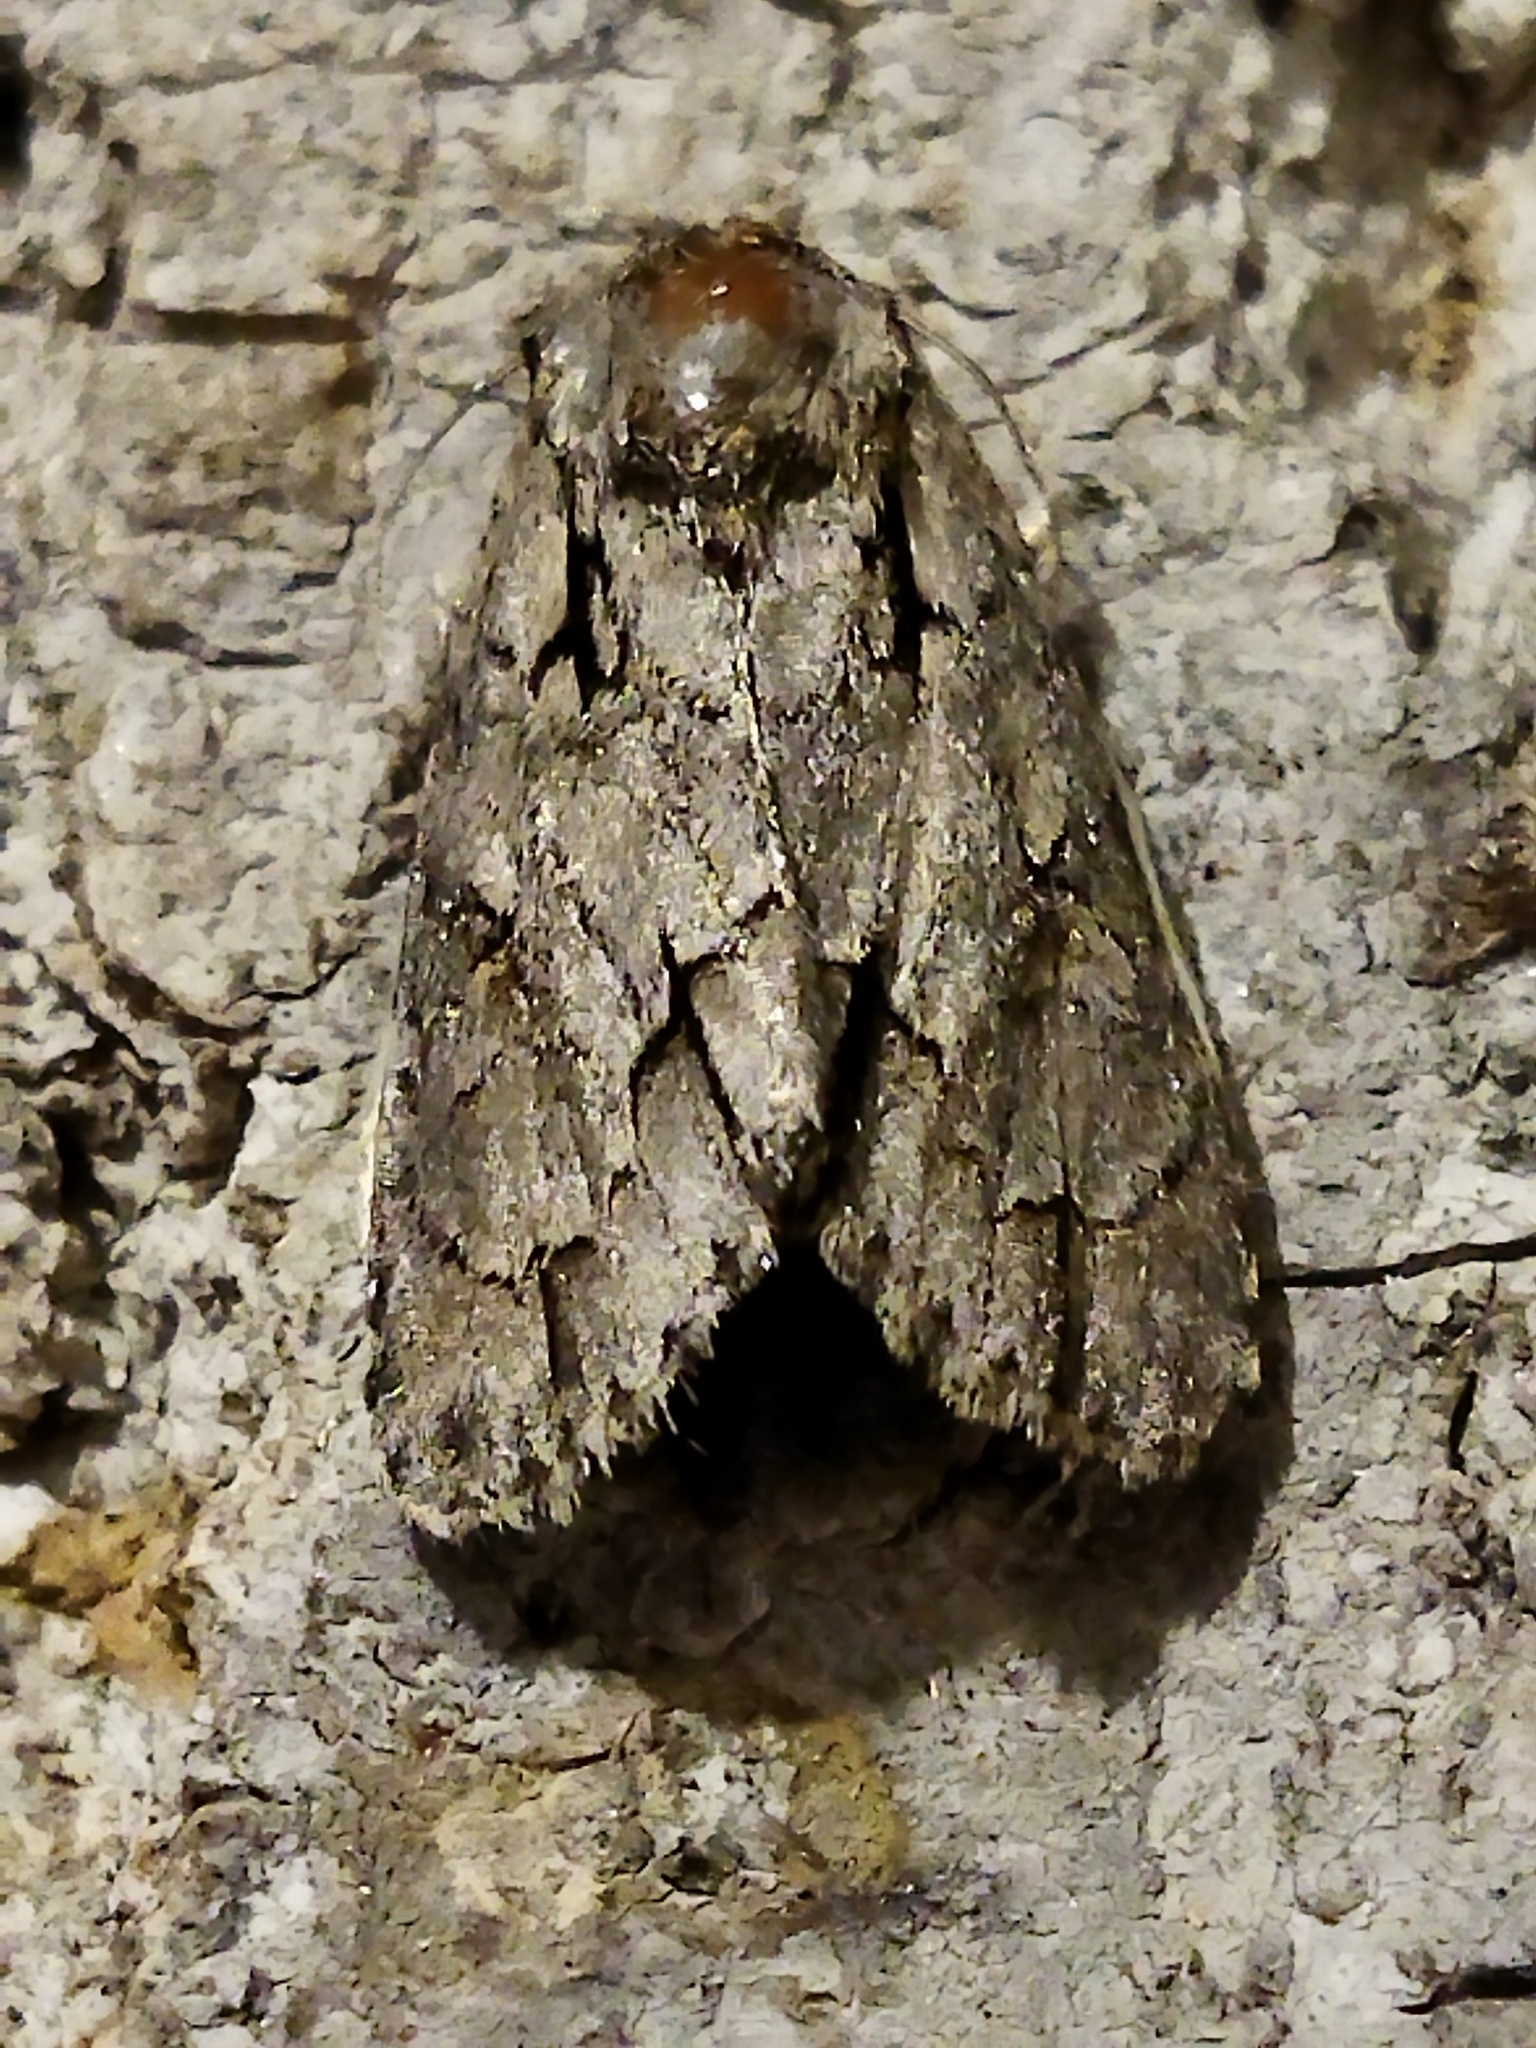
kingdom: Animalia
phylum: Arthropoda
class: Insecta
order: Lepidoptera
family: Noctuidae
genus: Acronicta
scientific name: Acronicta
